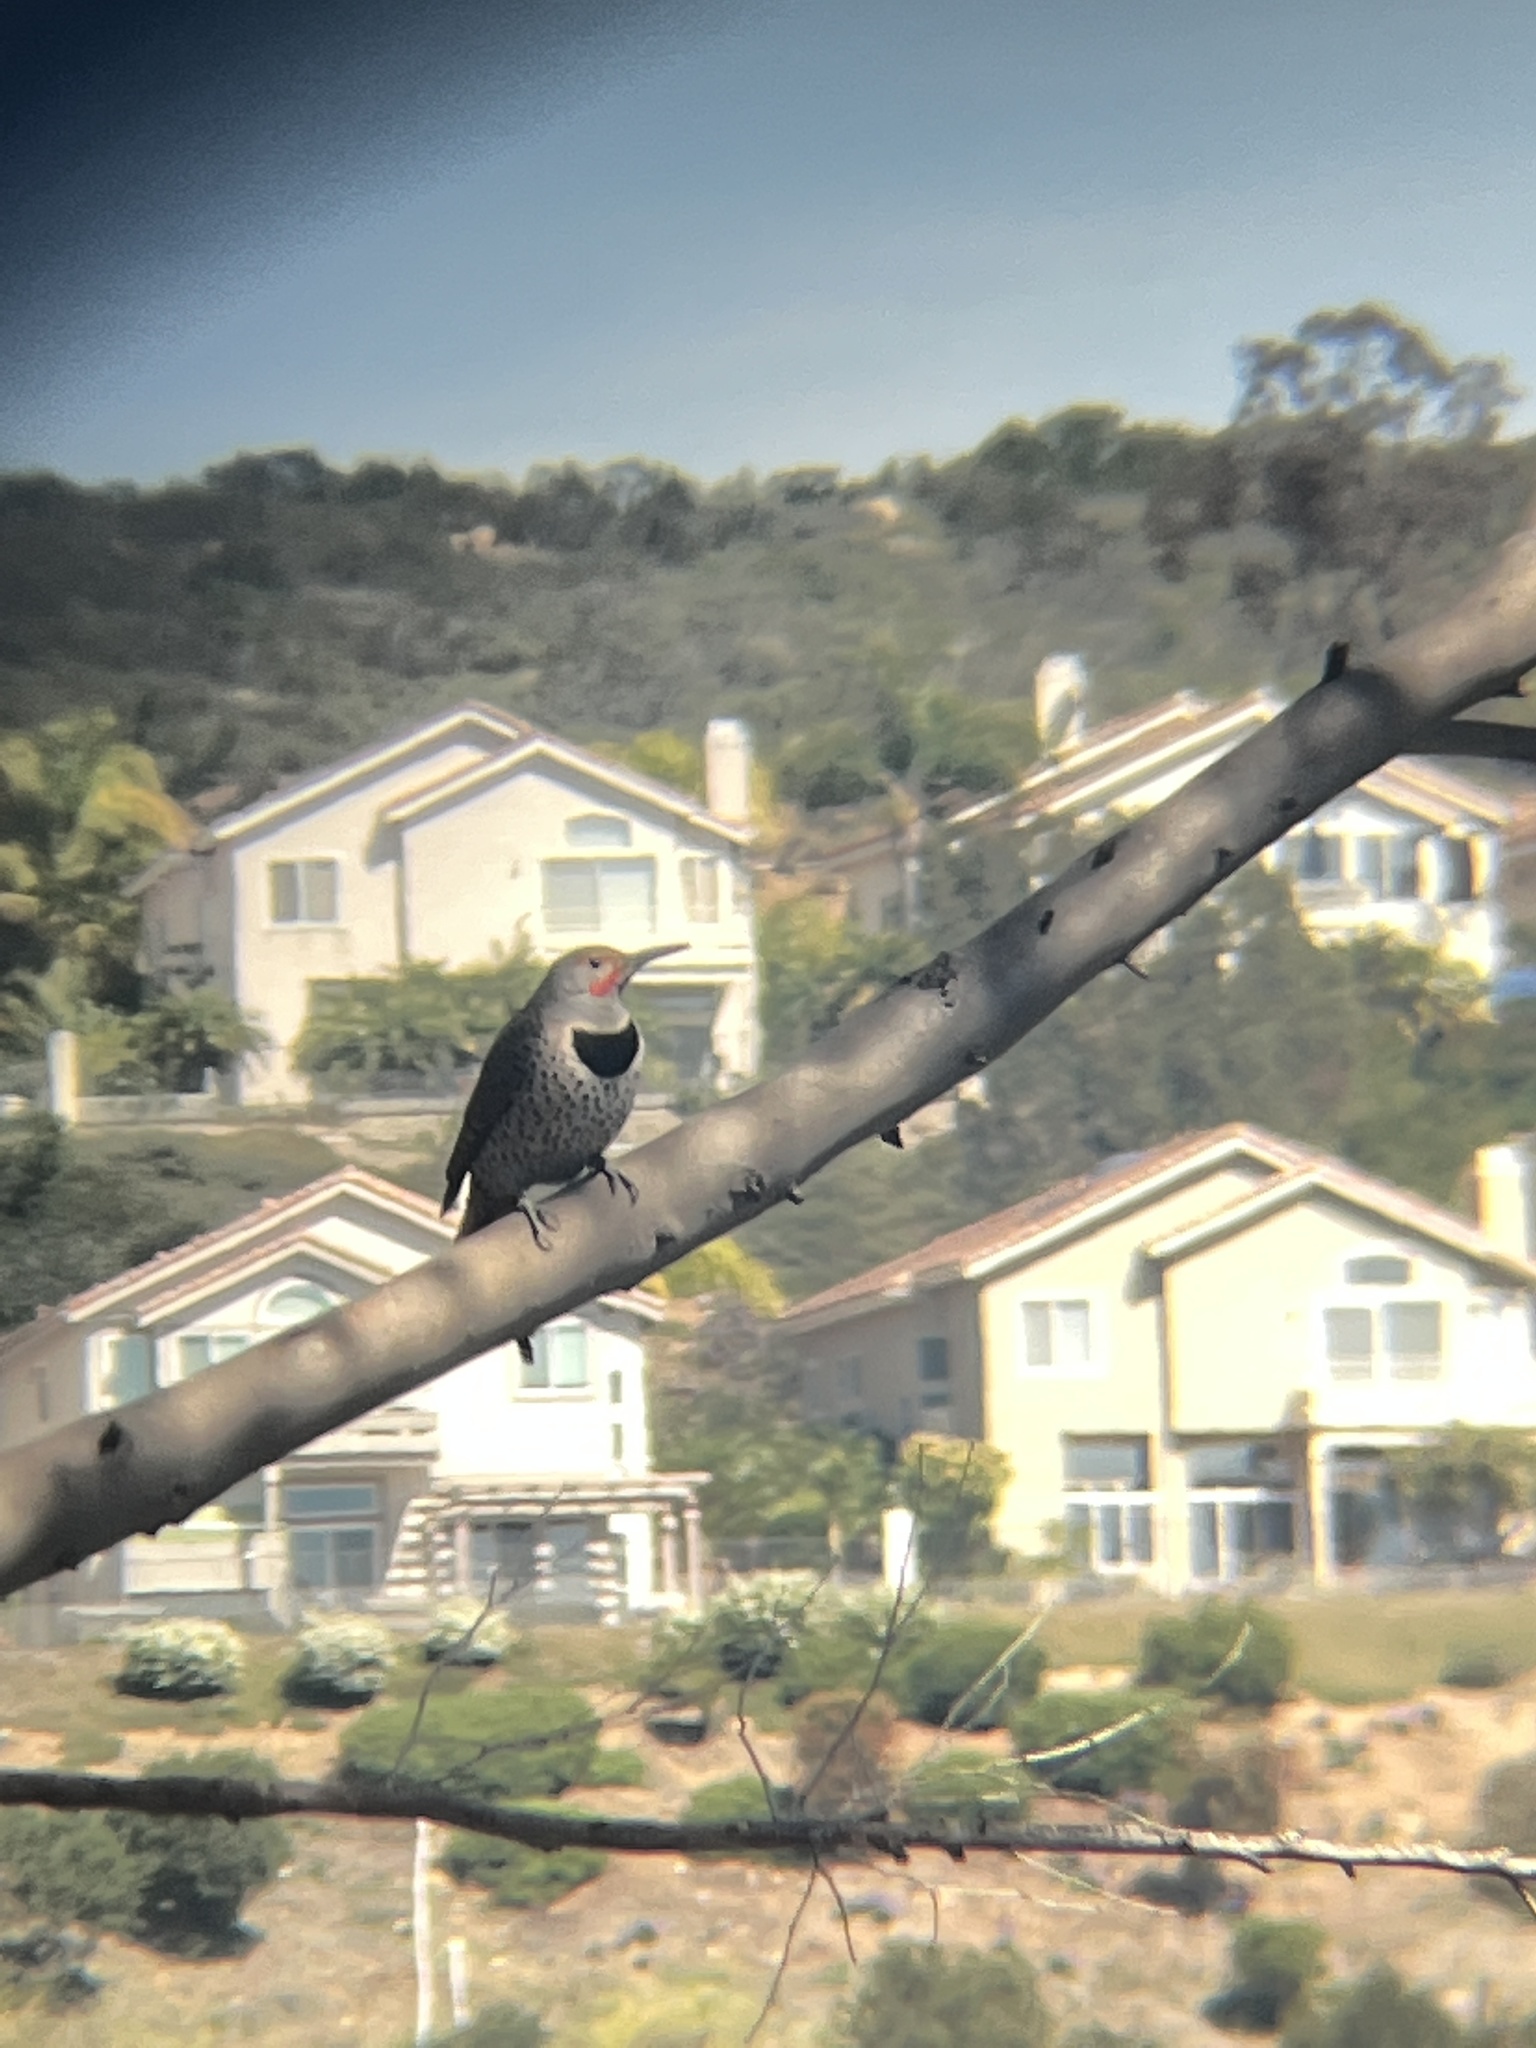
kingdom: Animalia
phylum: Chordata
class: Aves
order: Piciformes
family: Picidae
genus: Colaptes
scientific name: Colaptes auratus
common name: Northern flicker
